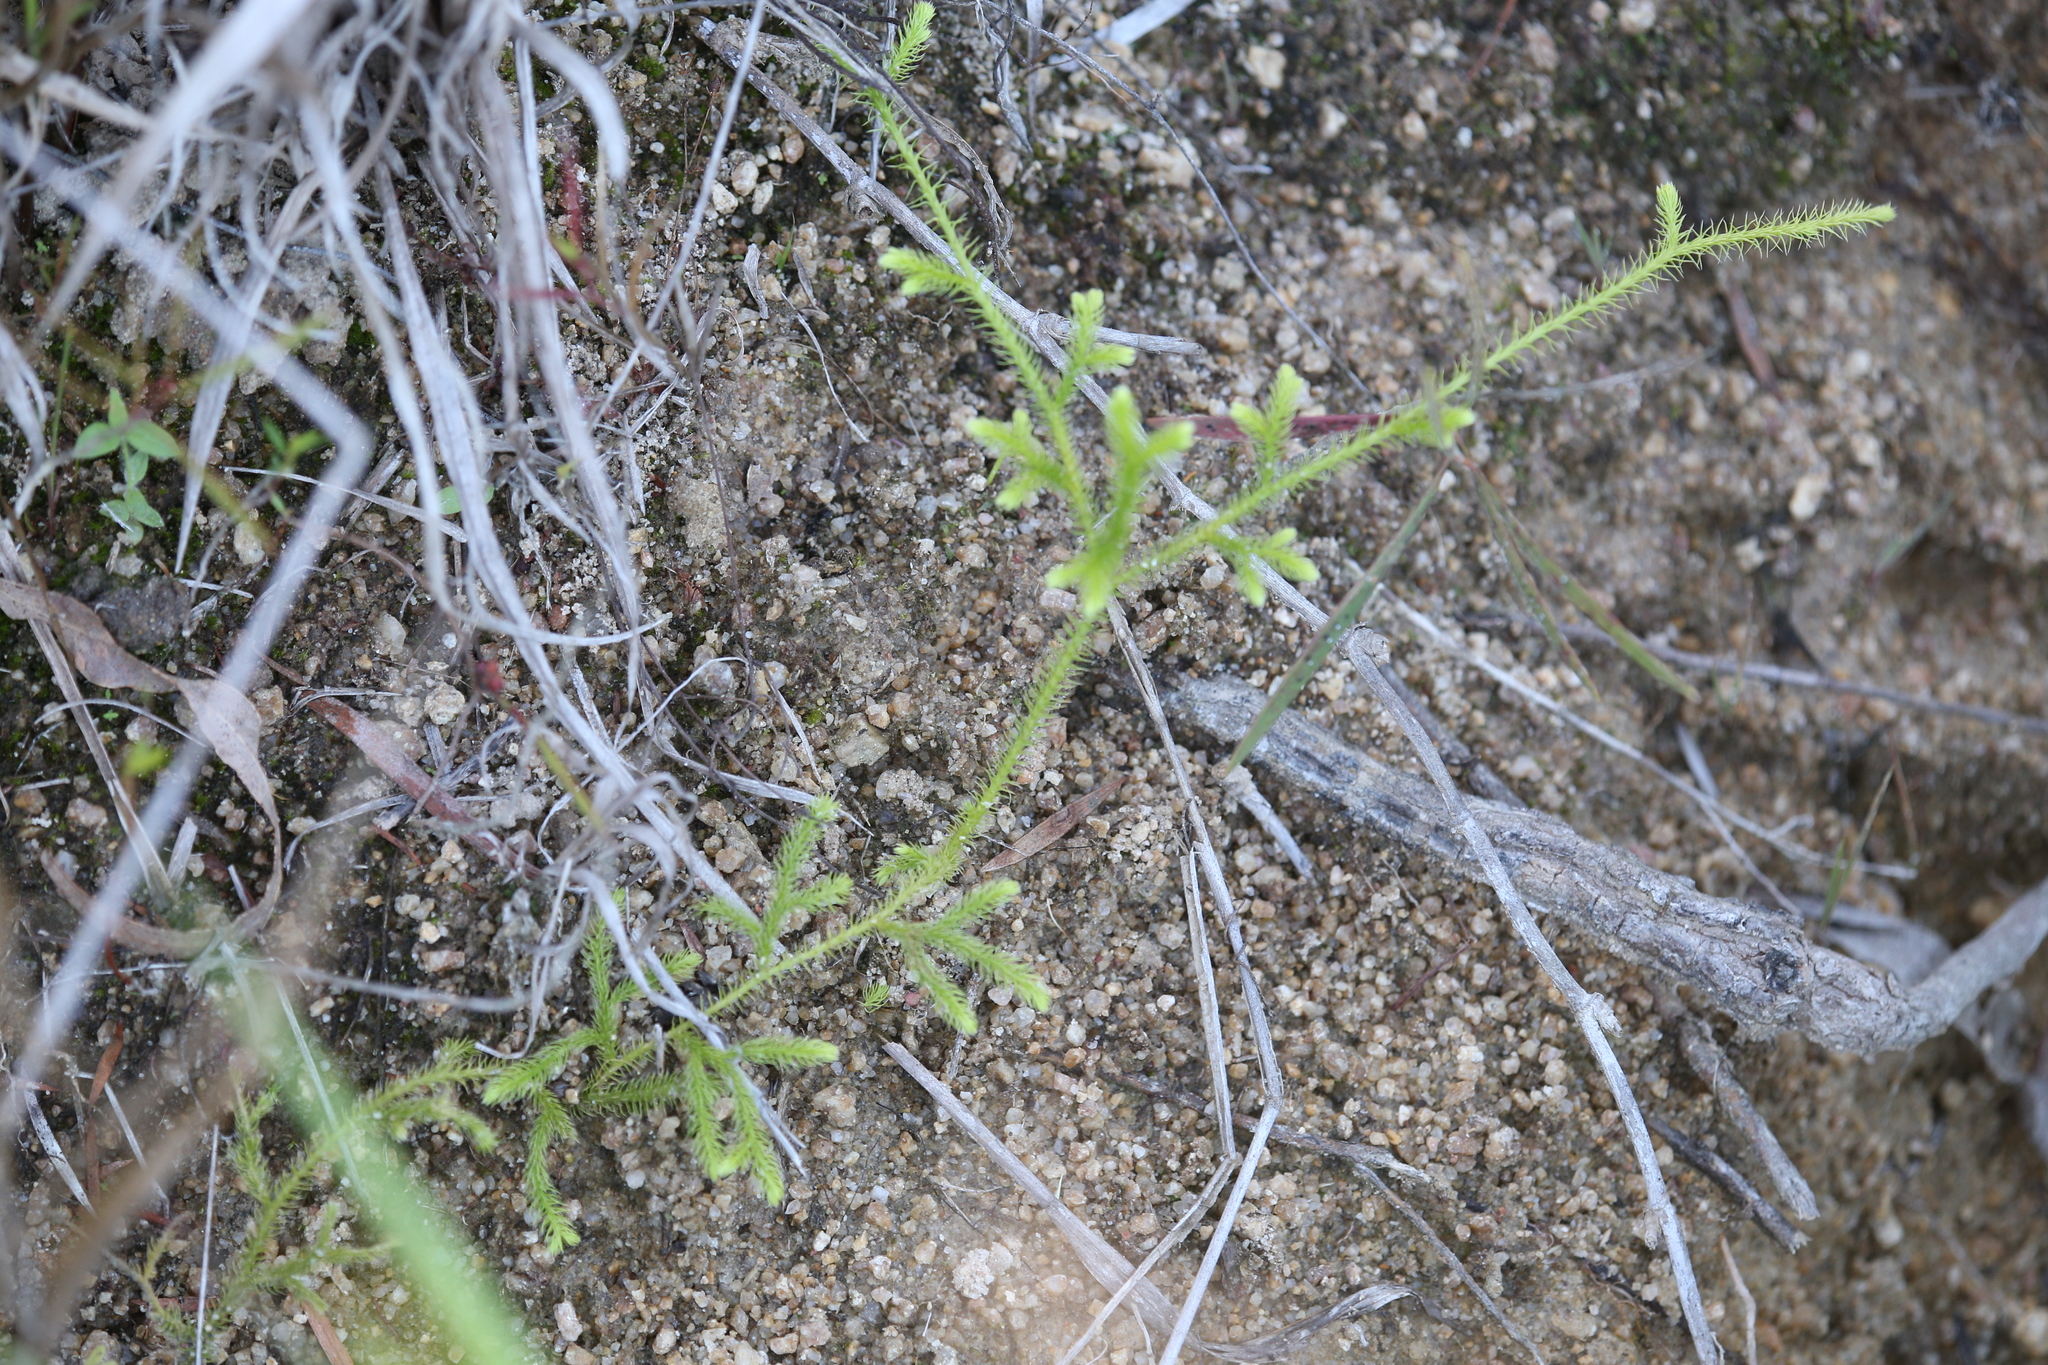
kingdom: Plantae
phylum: Tracheophyta
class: Lycopodiopsida
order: Lycopodiales
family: Lycopodiaceae
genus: Palhinhaea
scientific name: Palhinhaea cernua
